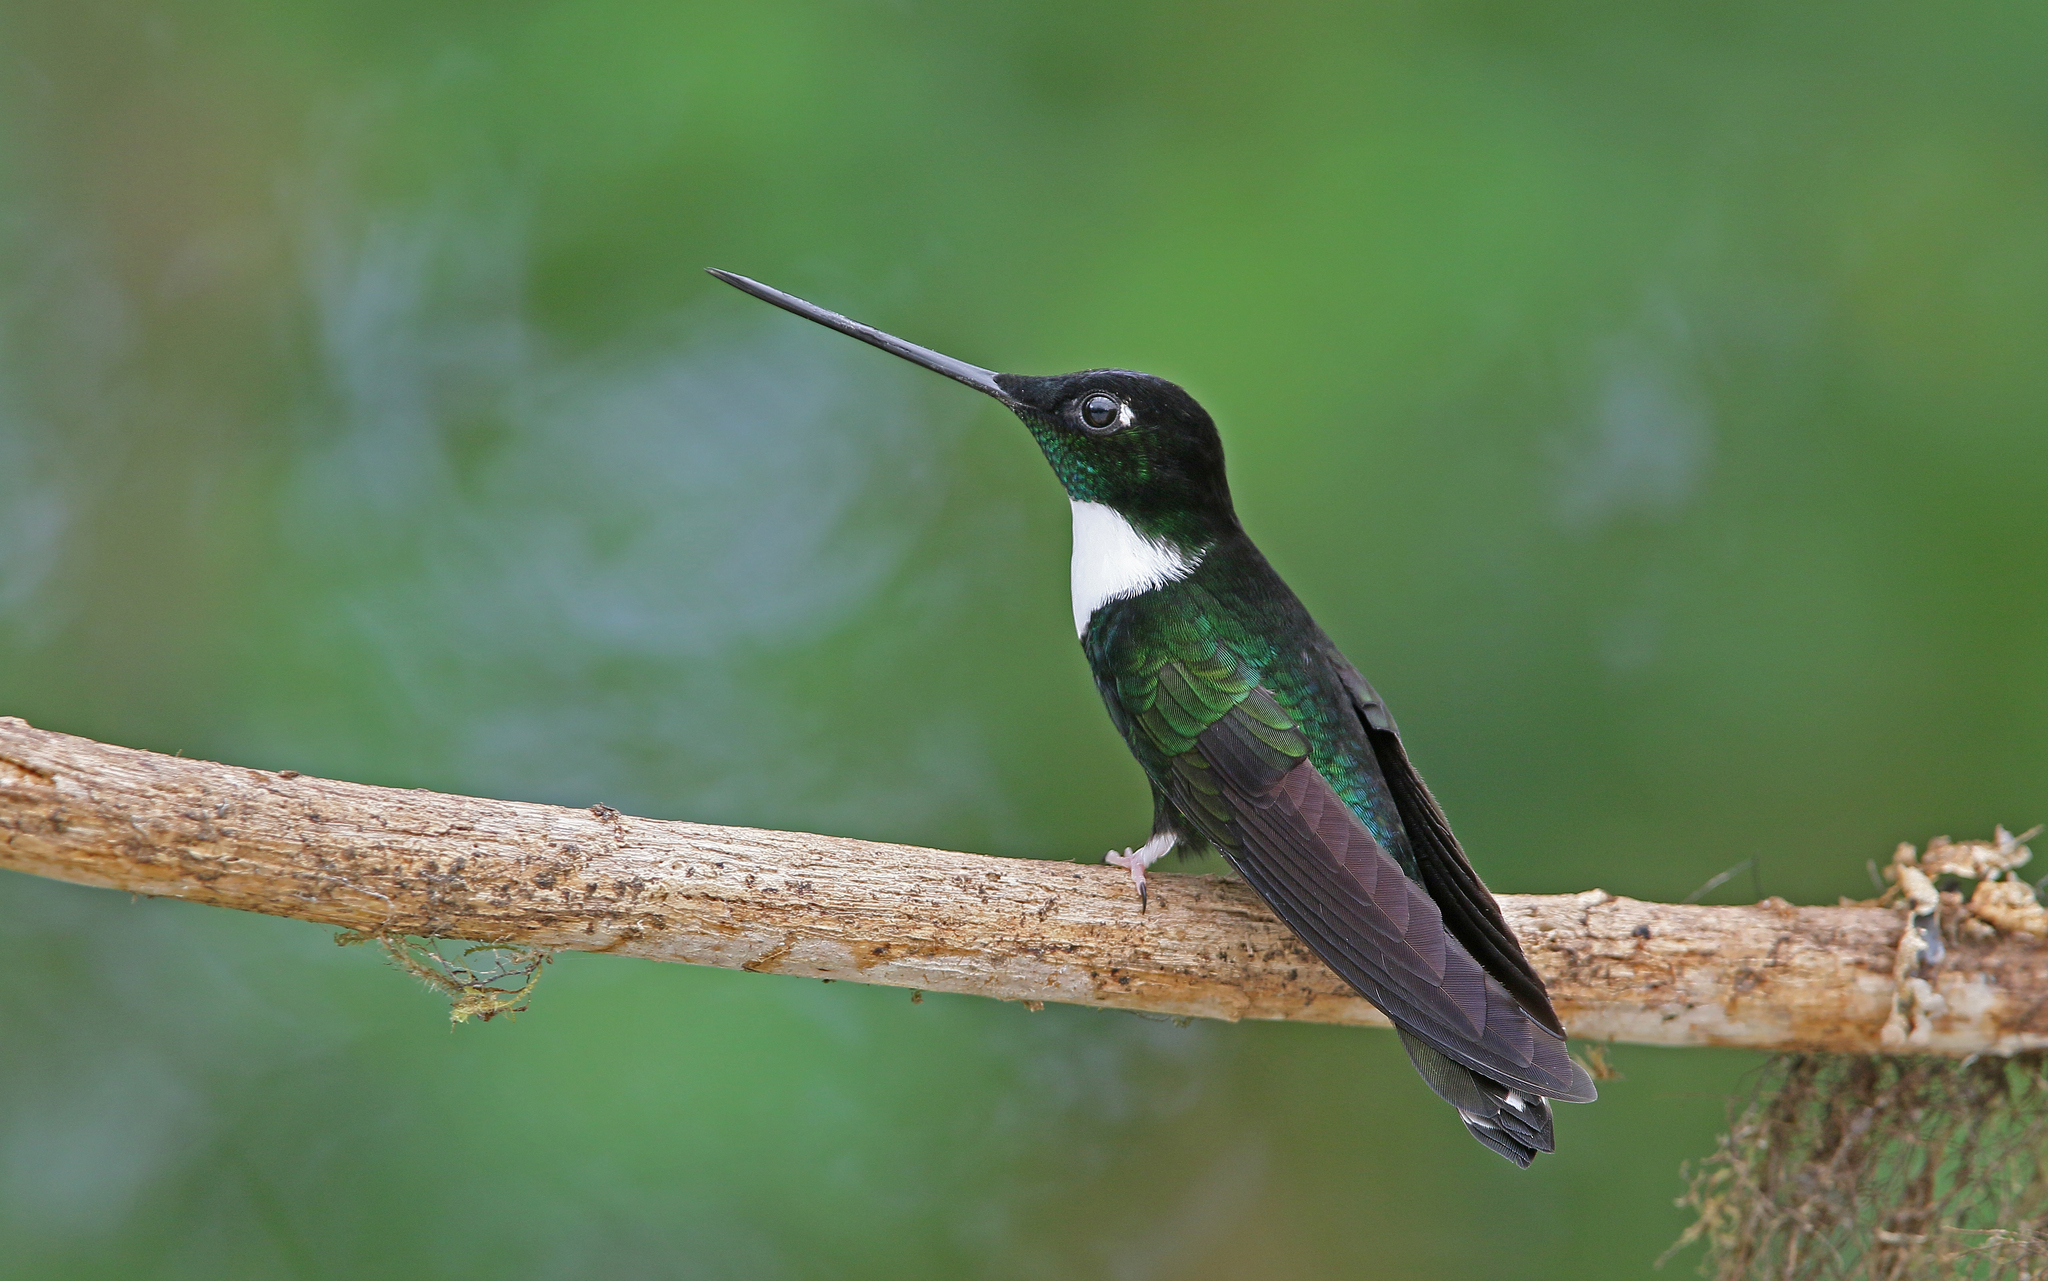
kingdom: Animalia
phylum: Chordata
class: Aves
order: Apodiformes
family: Trochilidae
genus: Coeligena
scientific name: Coeligena torquata
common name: Collared inca
